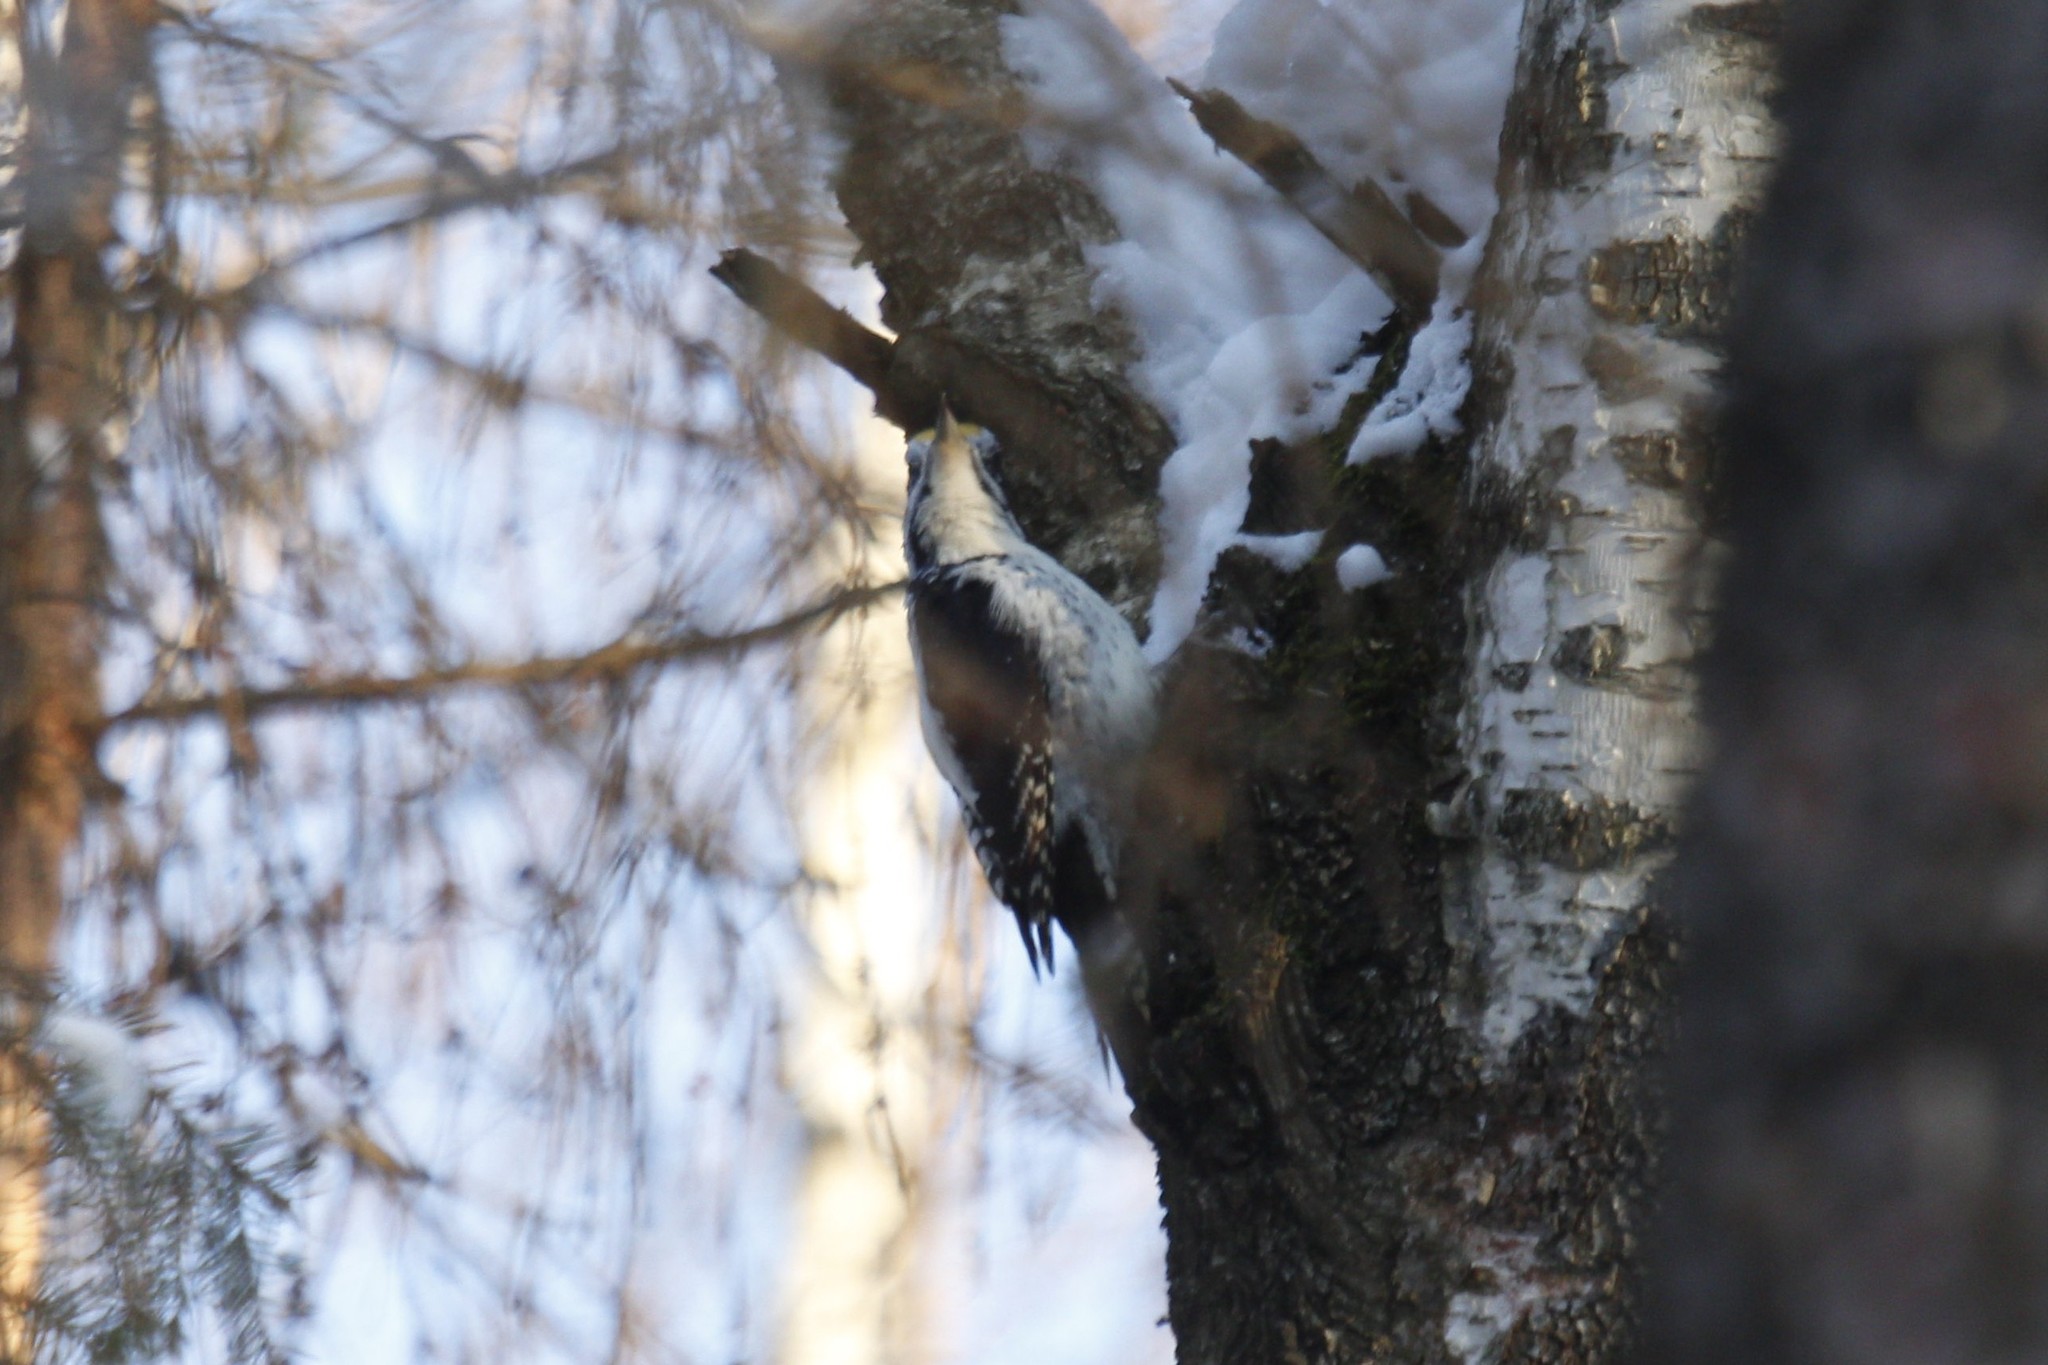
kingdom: Animalia
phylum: Chordata
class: Aves
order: Piciformes
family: Picidae
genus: Picoides
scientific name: Picoides tridactylus
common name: Eurasian three-toed woodpecker
